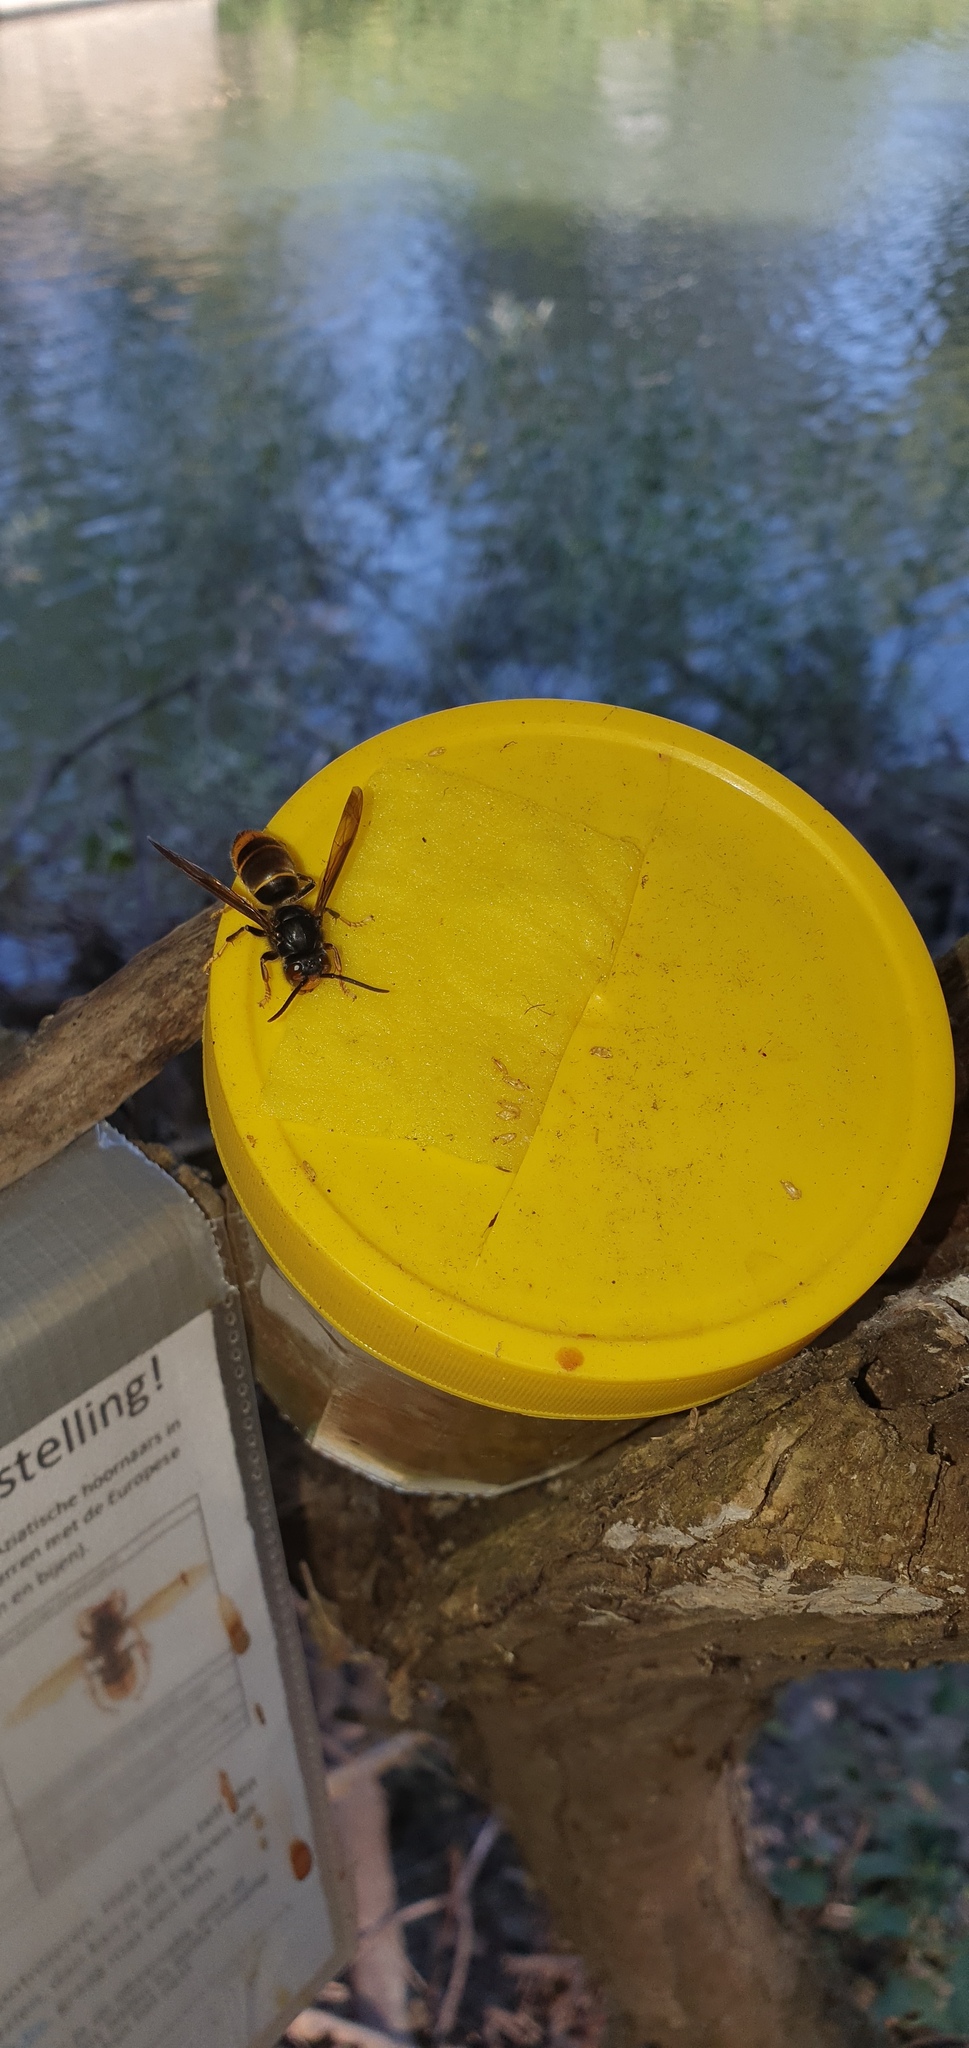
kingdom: Animalia
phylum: Arthropoda
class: Insecta
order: Hymenoptera
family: Vespidae
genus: Vespa
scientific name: Vespa velutina
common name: Asian hornet
